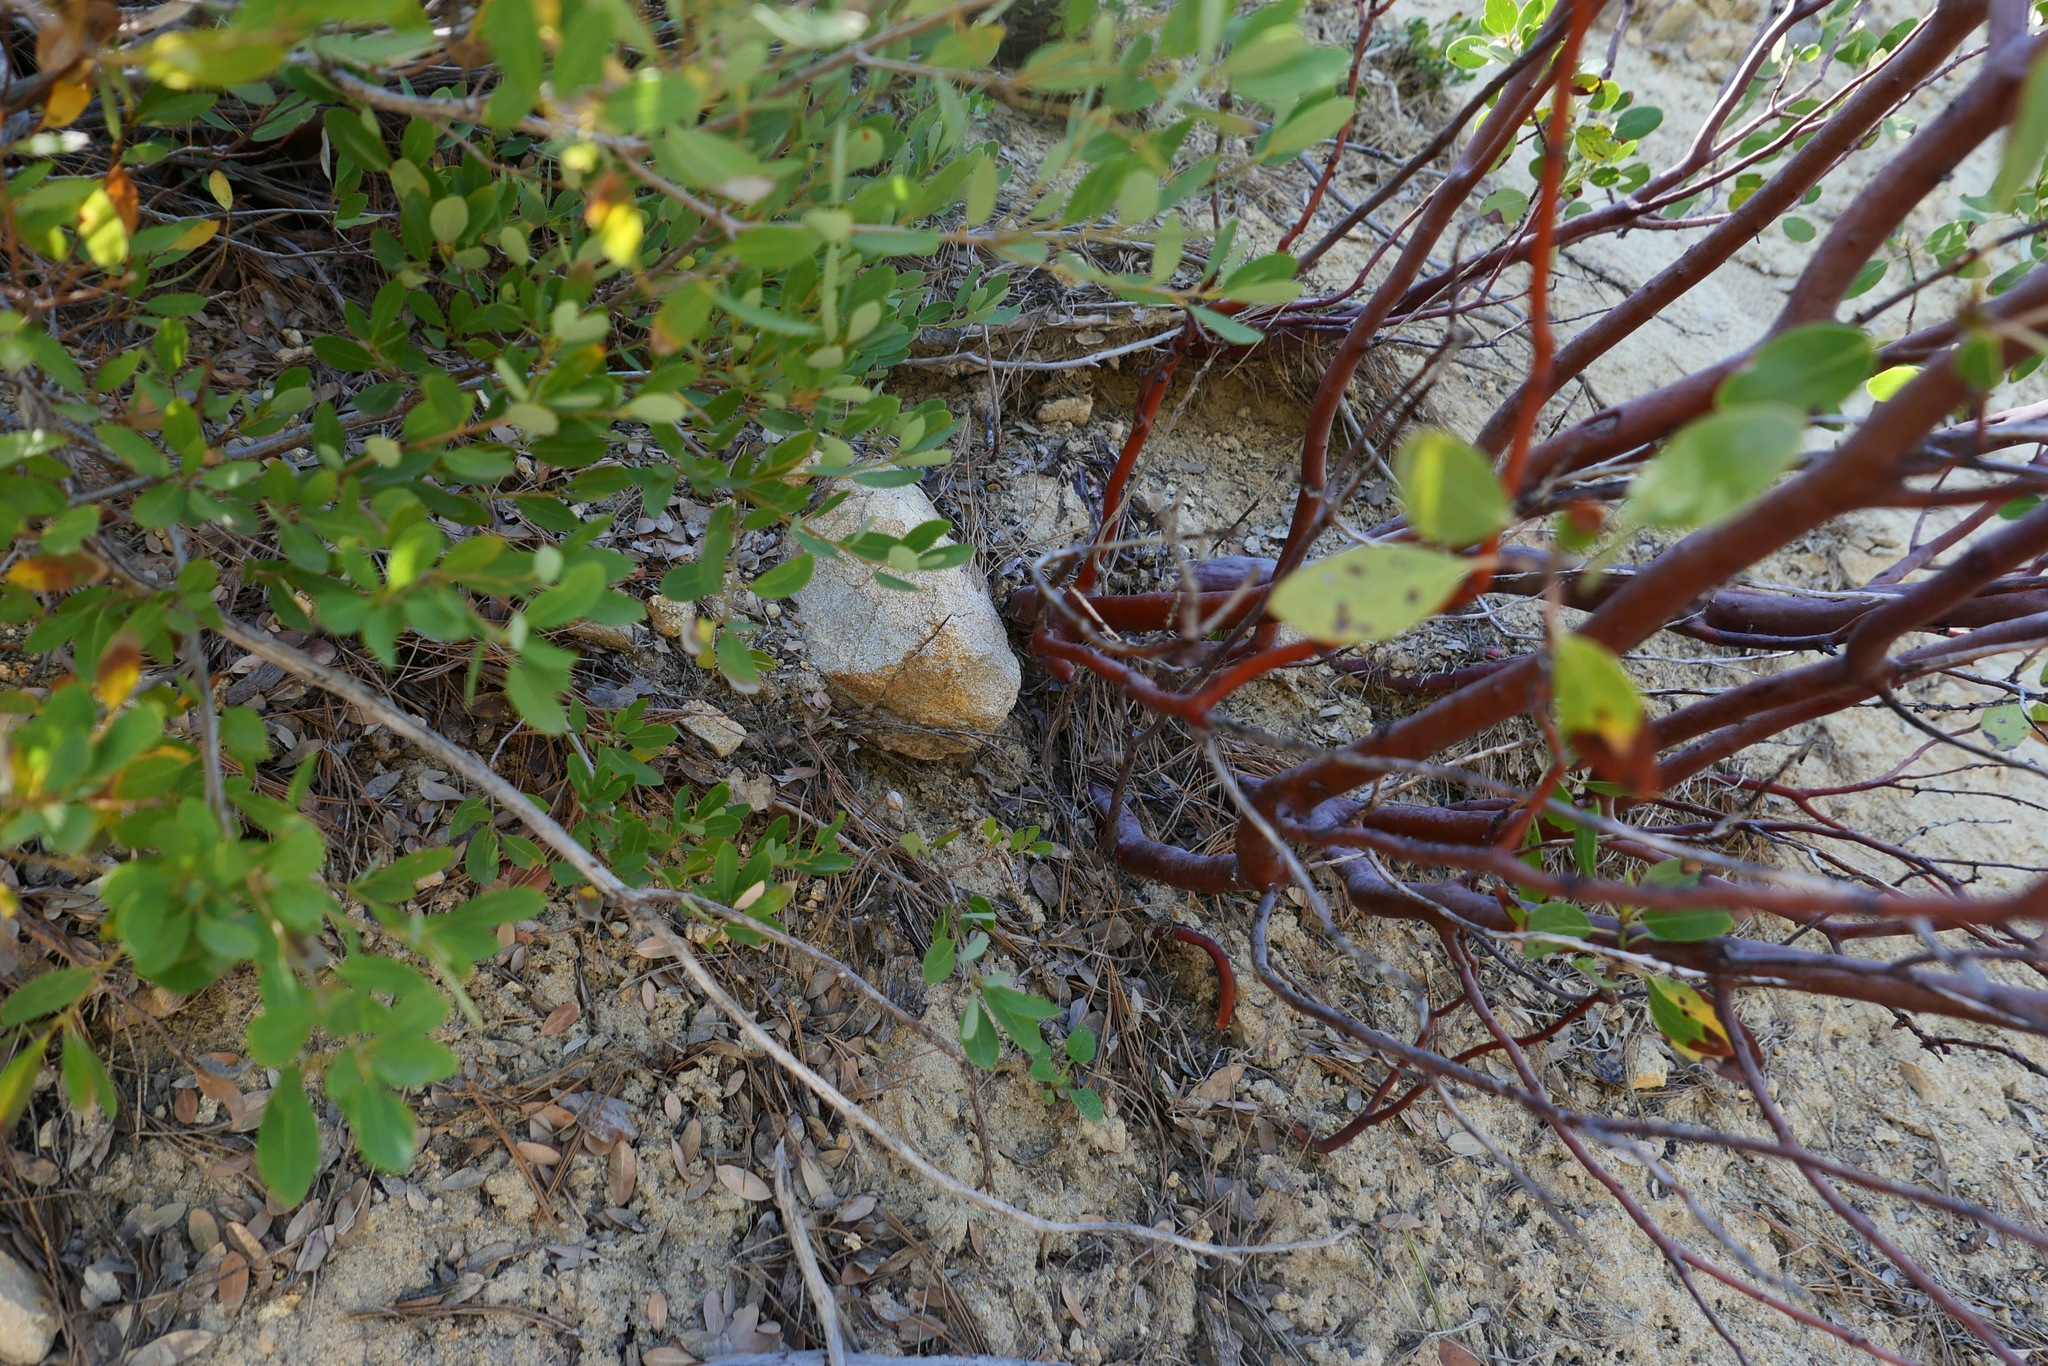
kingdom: Plantae
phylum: Tracheophyta
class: Magnoliopsida
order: Ericales
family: Ericaceae
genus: Arctostaphylos
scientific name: Arctostaphylos patula
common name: Green-leaf manzanita
